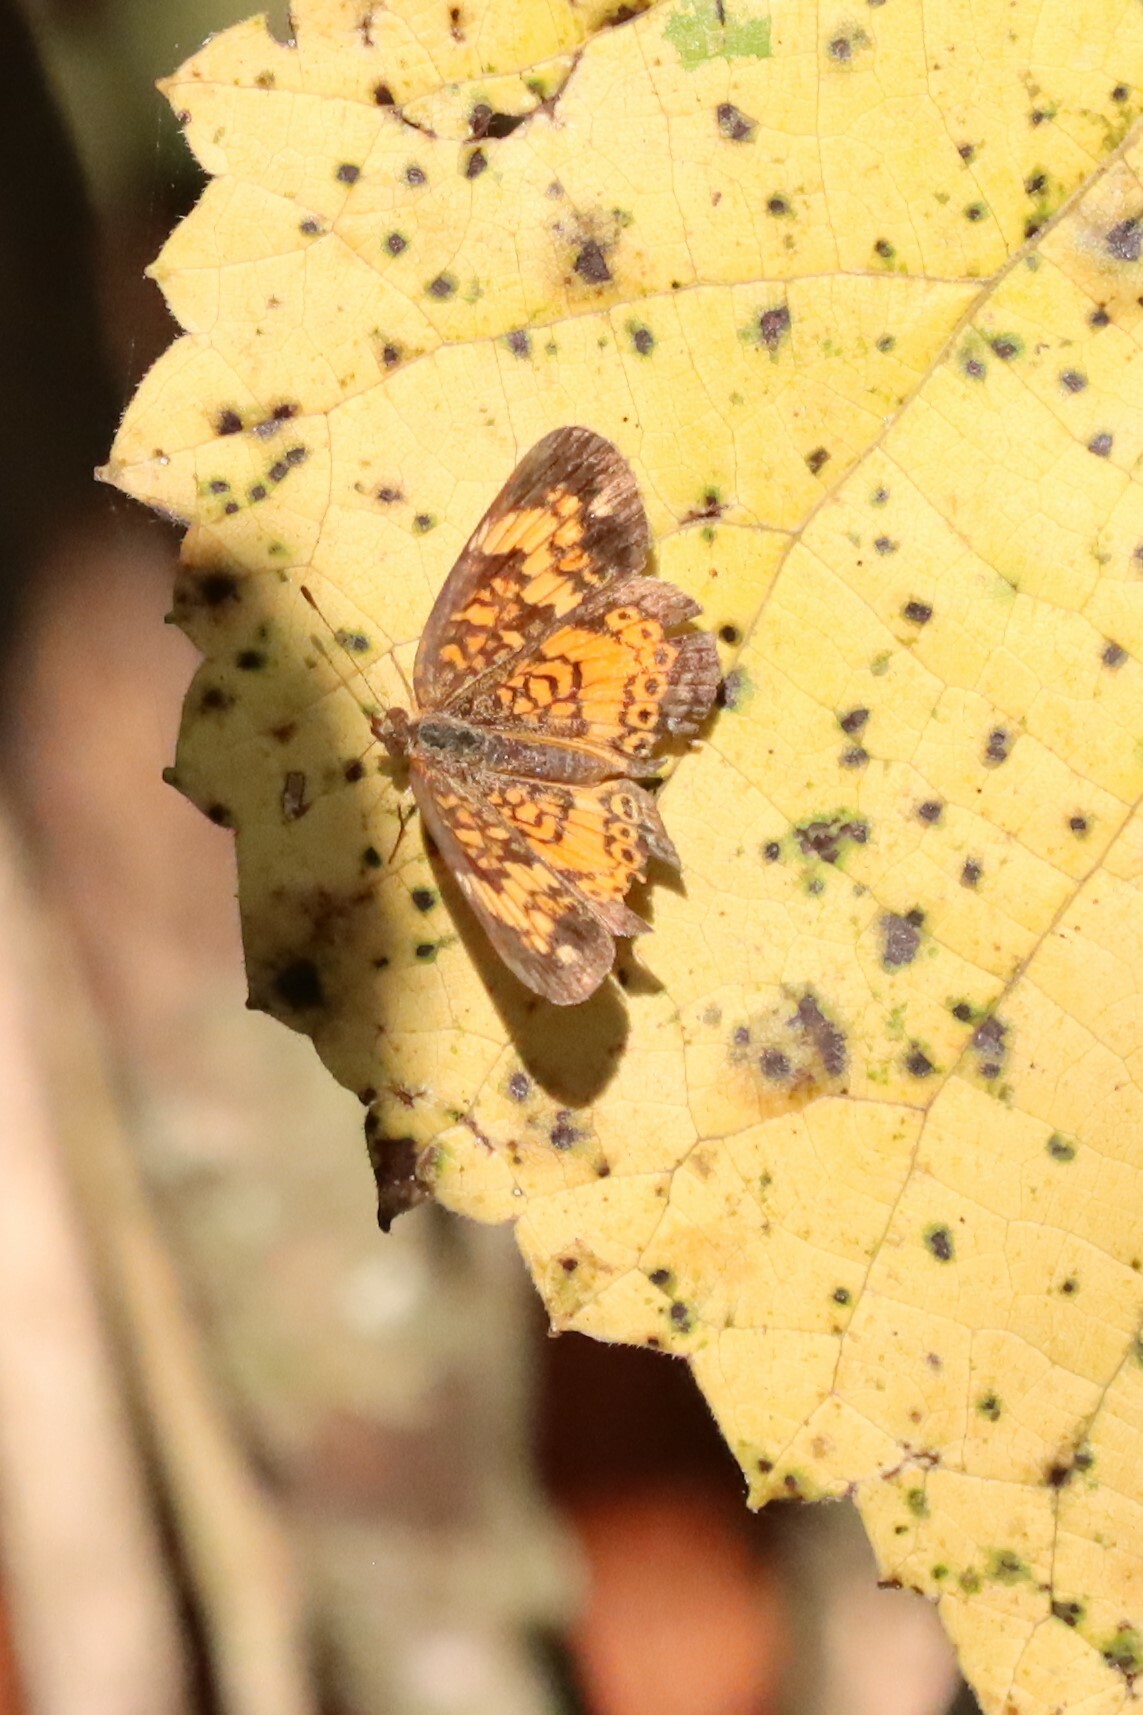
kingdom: Animalia
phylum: Arthropoda
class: Insecta
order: Lepidoptera
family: Nymphalidae
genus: Phyciodes
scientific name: Phyciodes tharos
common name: Pearl crescent
